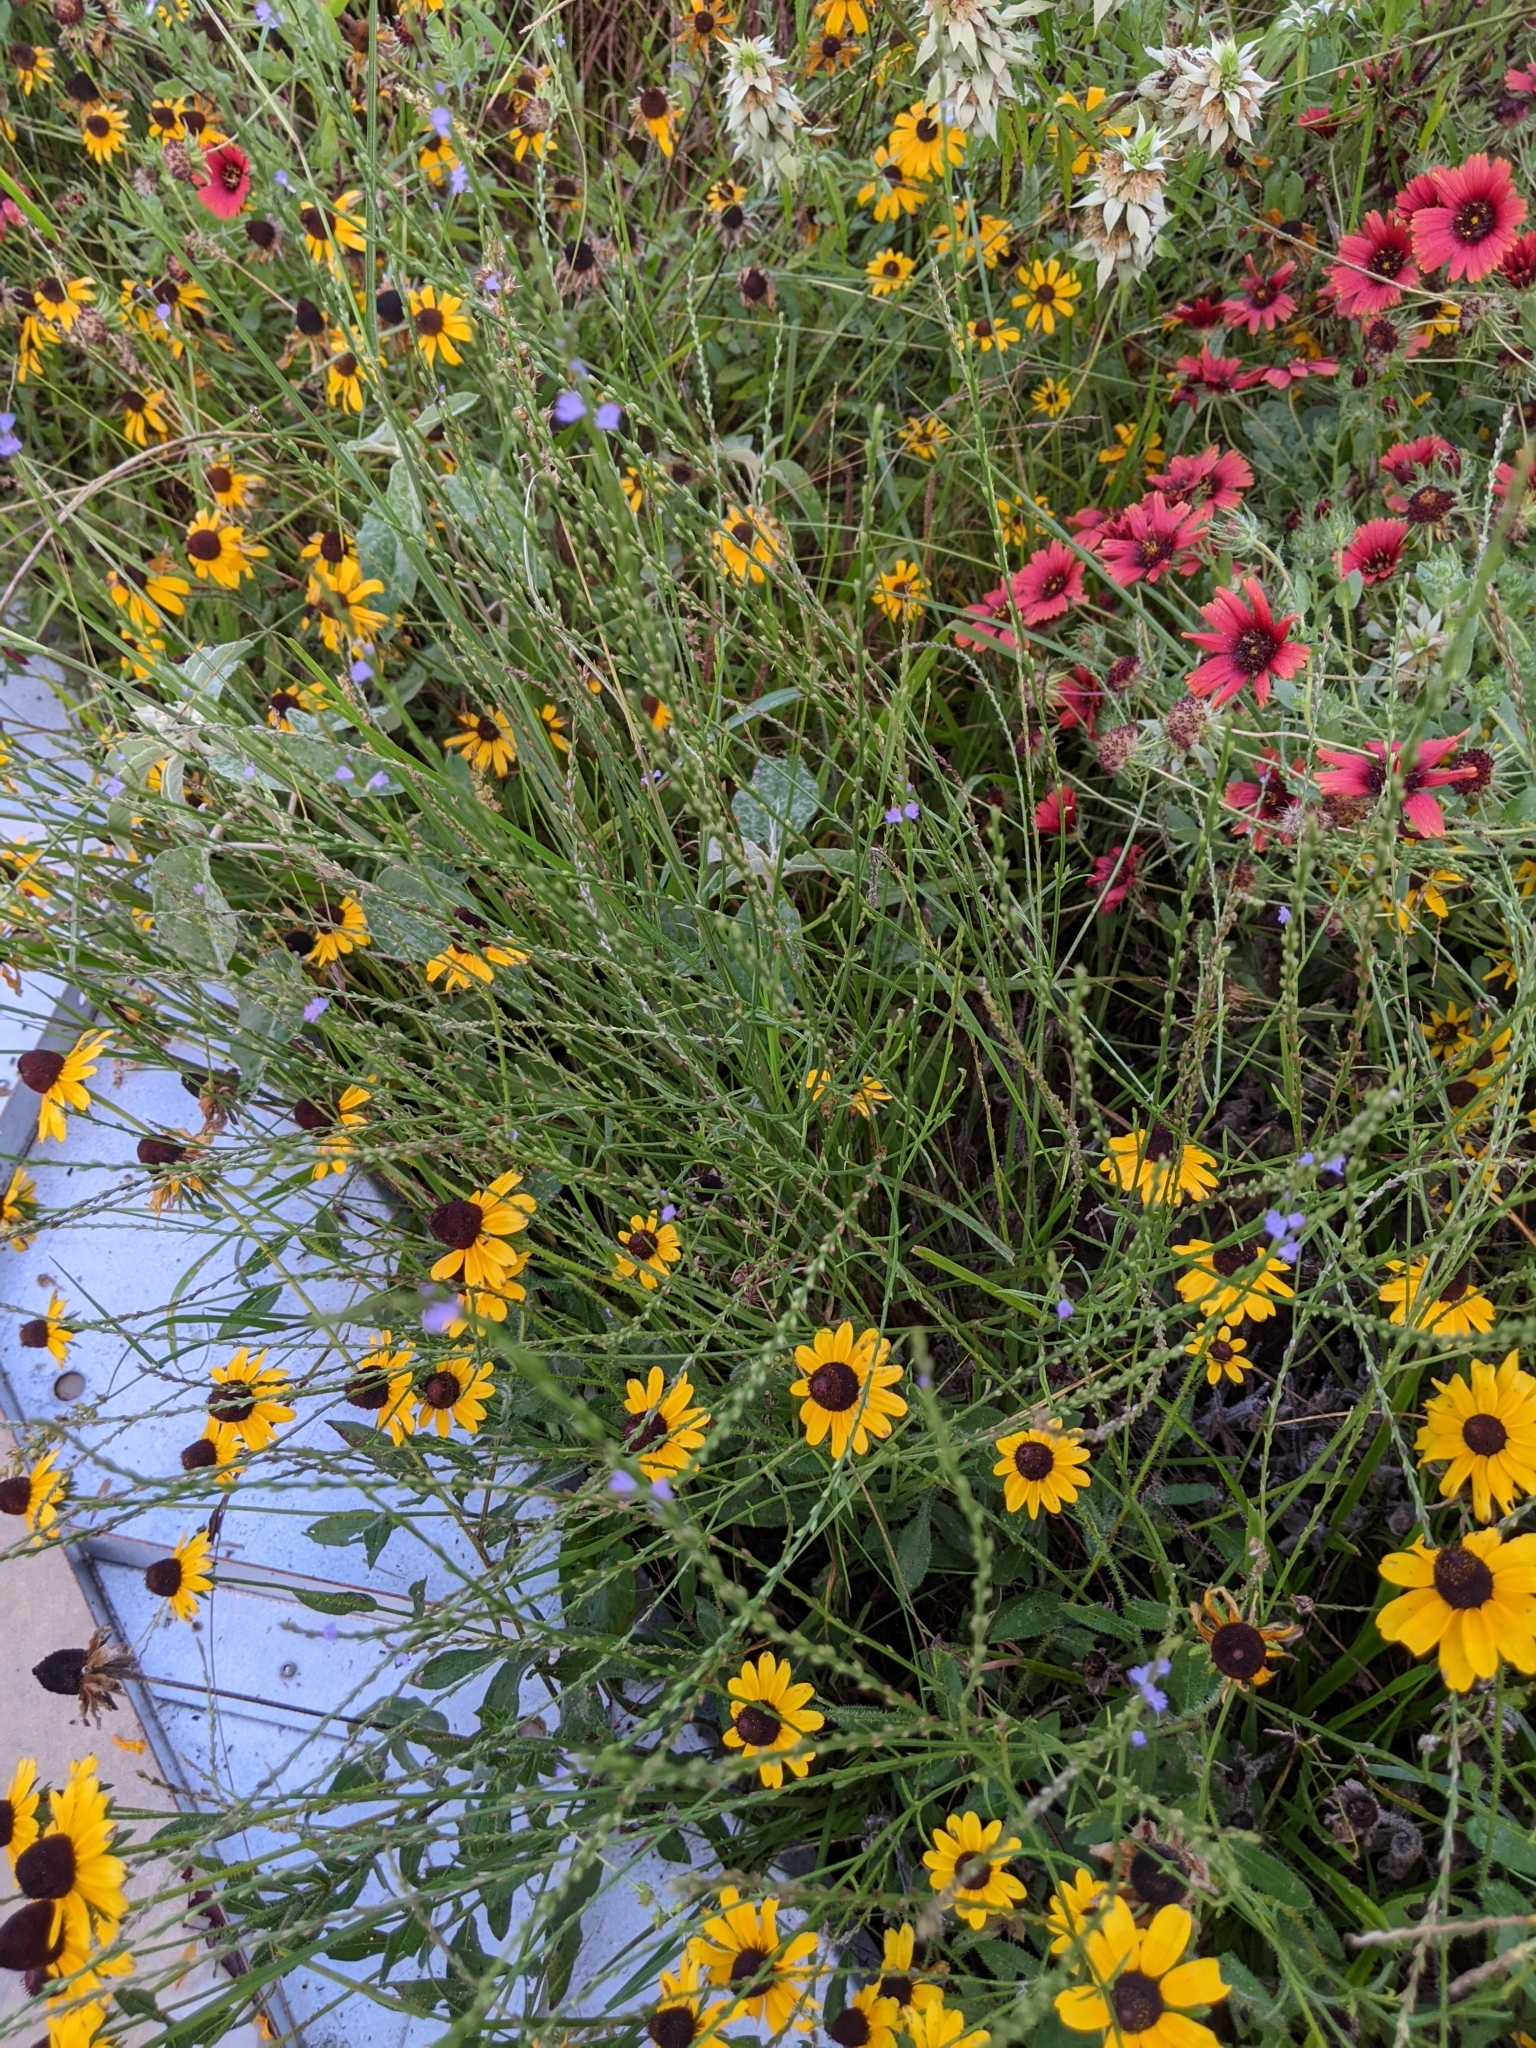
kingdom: Plantae
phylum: Tracheophyta
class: Magnoliopsida
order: Lamiales
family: Verbenaceae
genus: Verbena
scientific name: Verbena halei
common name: Texas vervain
